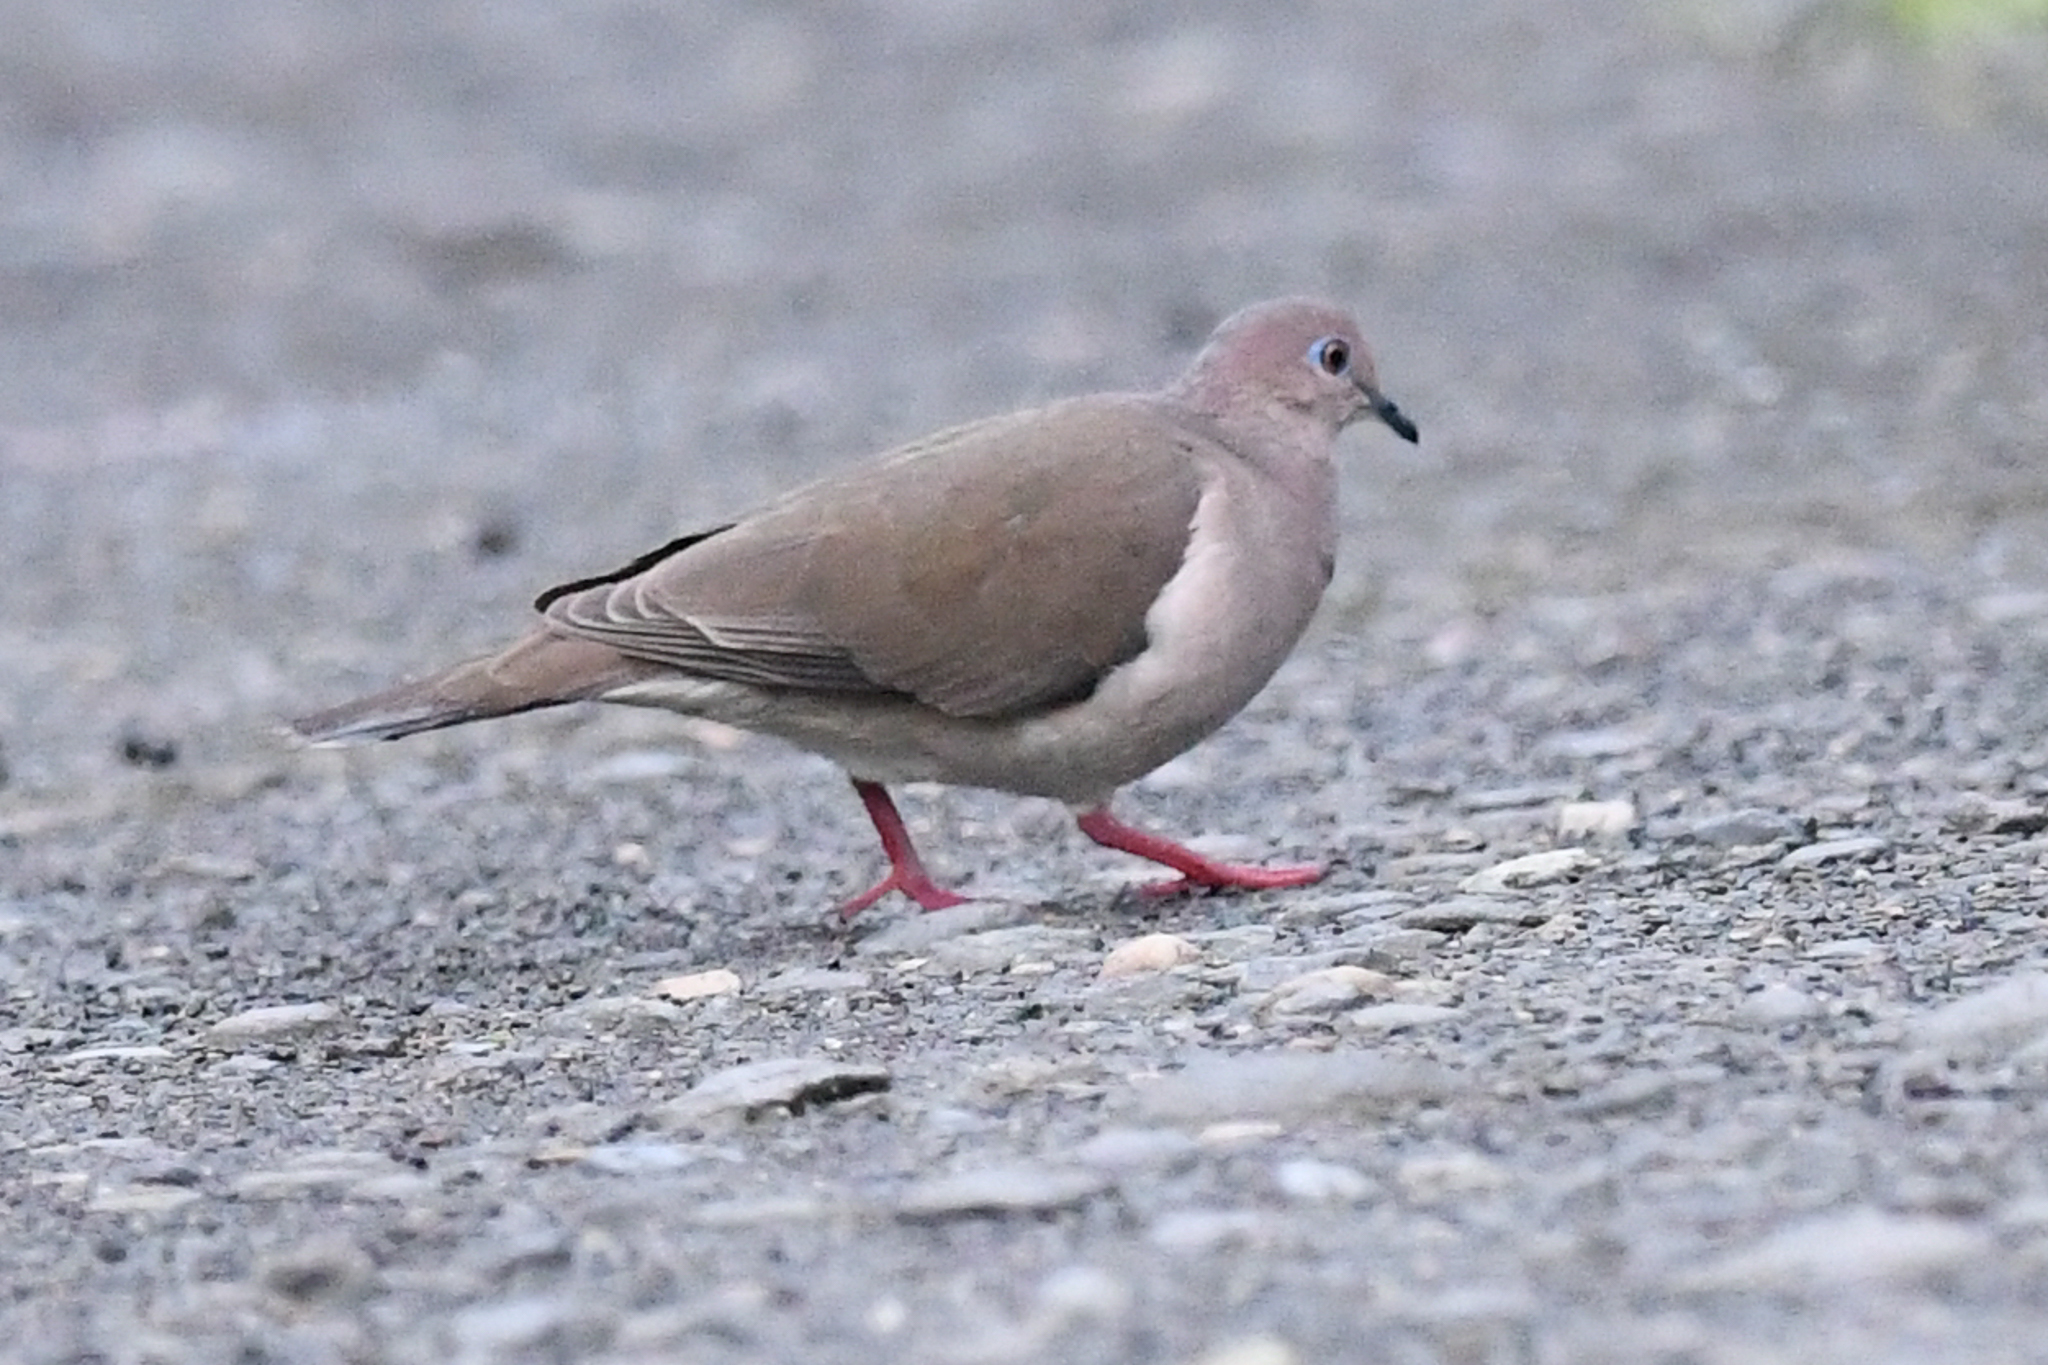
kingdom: Animalia
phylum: Chordata
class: Aves
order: Columbiformes
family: Columbidae
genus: Leptotila
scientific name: Leptotila verreauxi
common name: White-tipped dove
